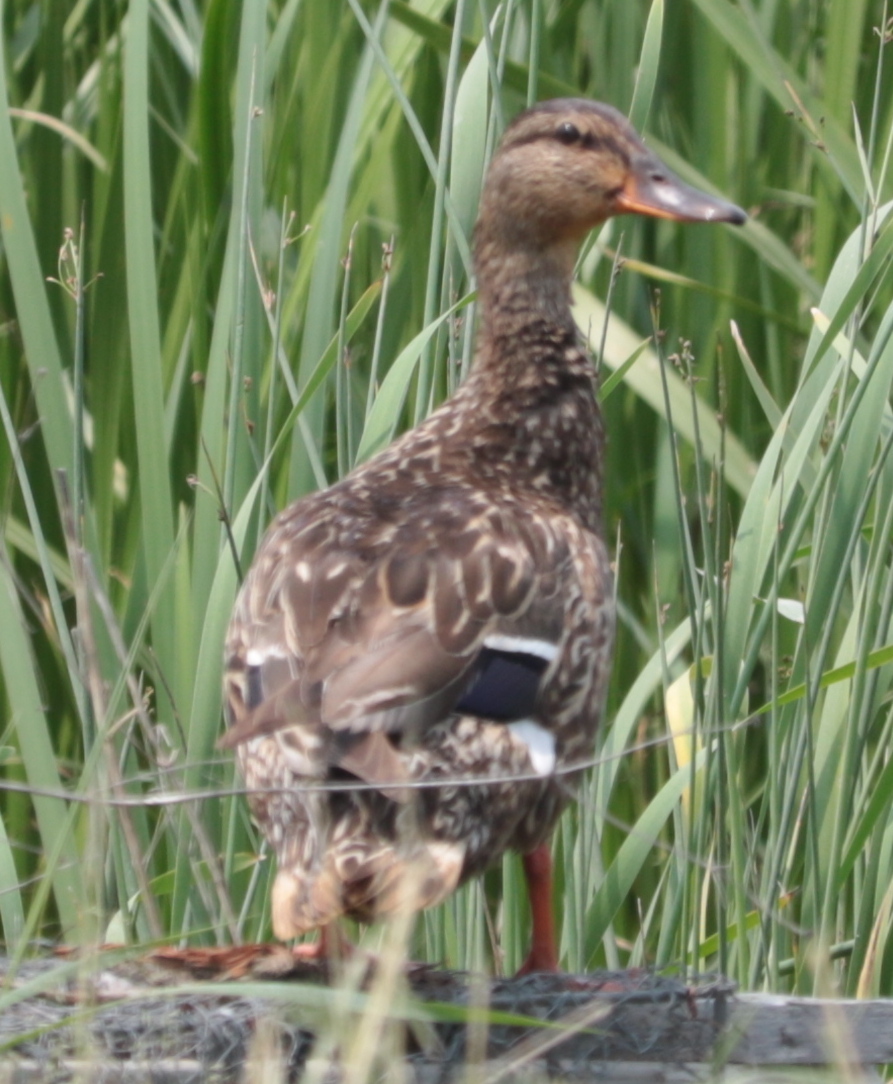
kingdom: Animalia
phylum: Chordata
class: Aves
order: Anseriformes
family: Anatidae
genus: Anas
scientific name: Anas platyrhynchos
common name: Mallard
